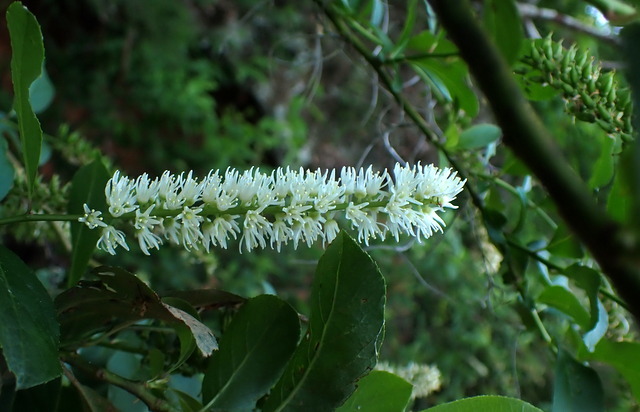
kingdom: Plantae
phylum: Tracheophyta
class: Magnoliopsida
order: Saxifragales
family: Iteaceae
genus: Itea
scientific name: Itea virginica
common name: Sweetspire
